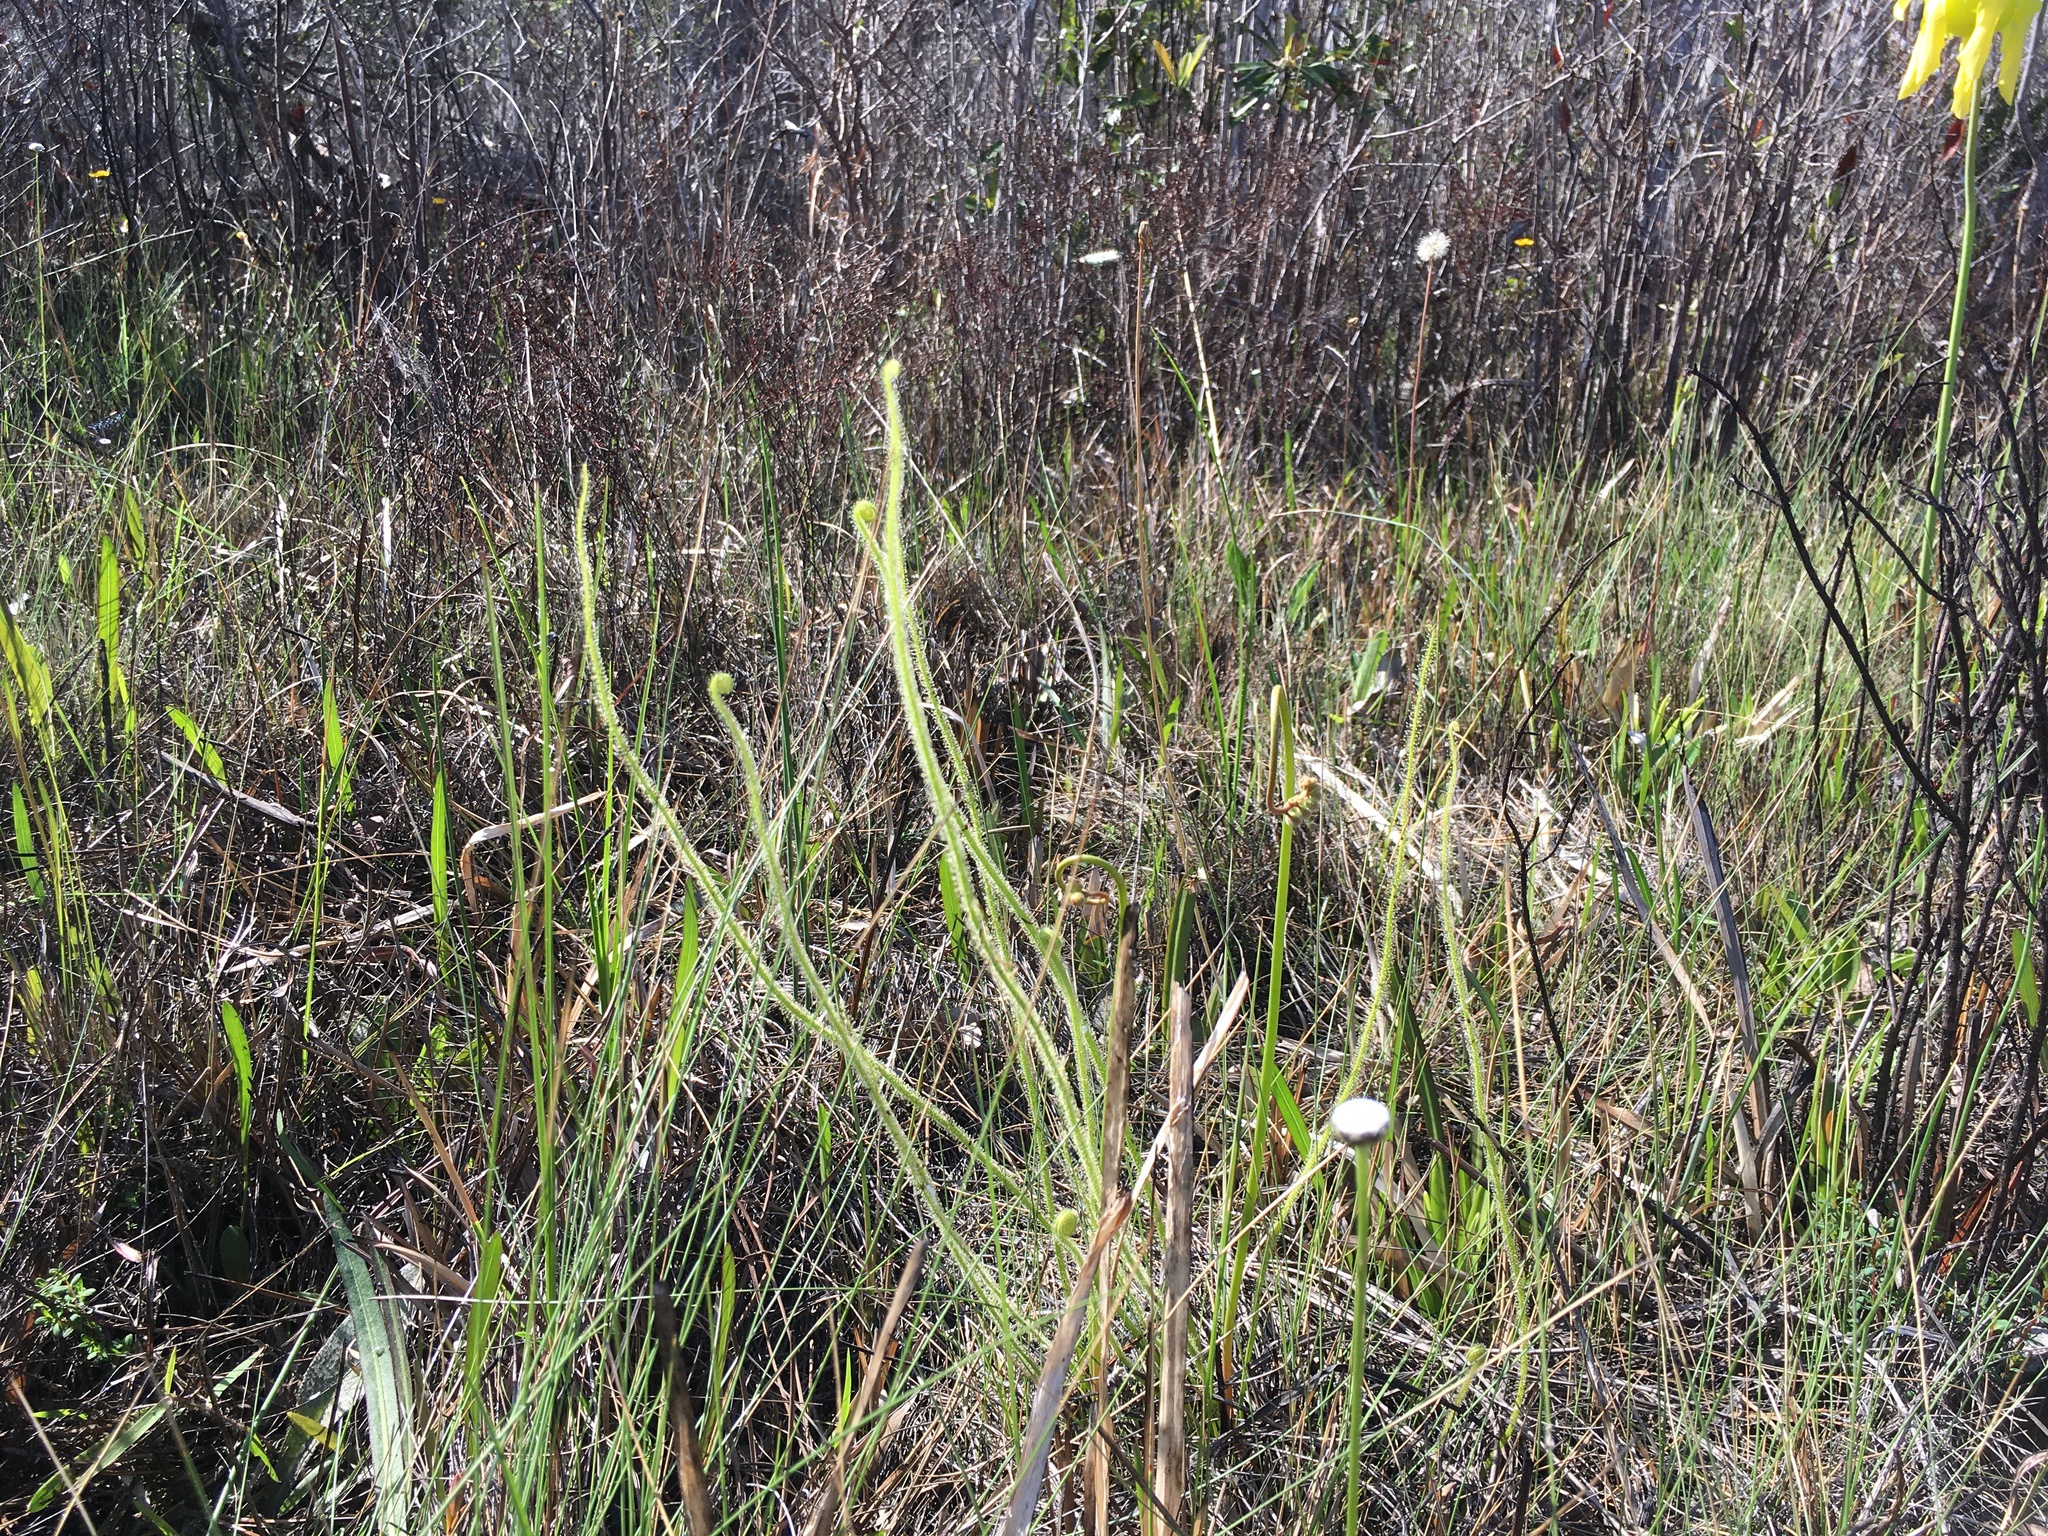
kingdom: Plantae
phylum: Tracheophyta
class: Magnoliopsida
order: Caryophyllales
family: Droseraceae
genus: Drosera
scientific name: Drosera filiformis
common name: Dew-thread
